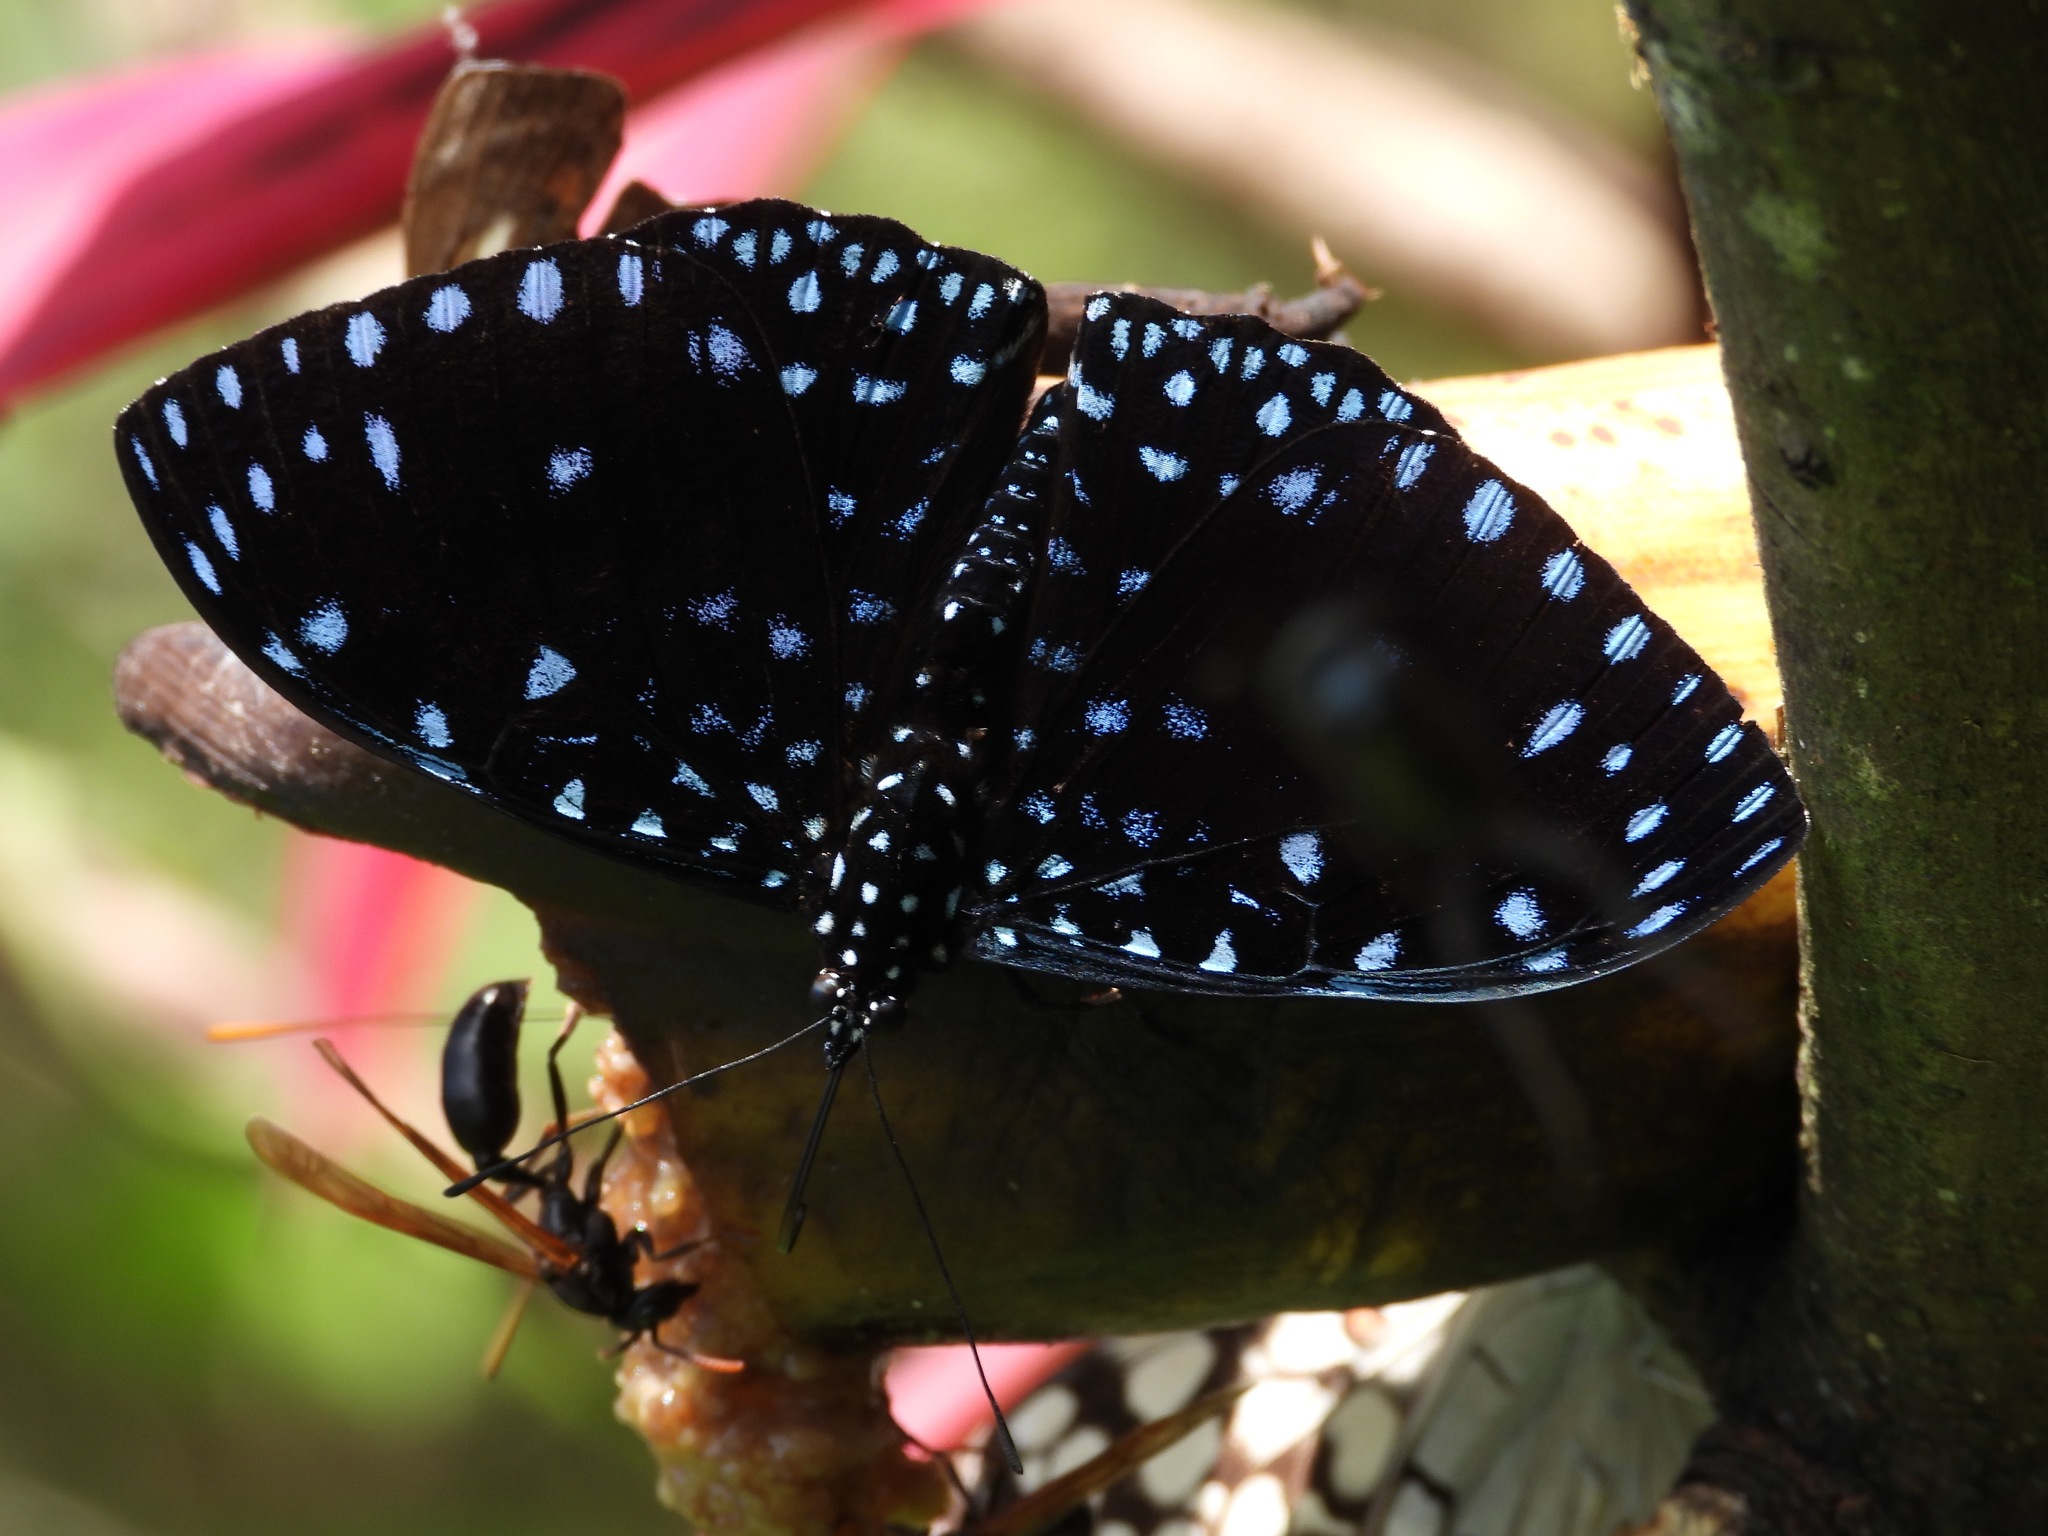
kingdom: Animalia
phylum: Arthropoda
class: Insecta
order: Lepidoptera
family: Nymphalidae
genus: Hamadryas
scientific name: Hamadryas laodamia
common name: Starry night cracker
